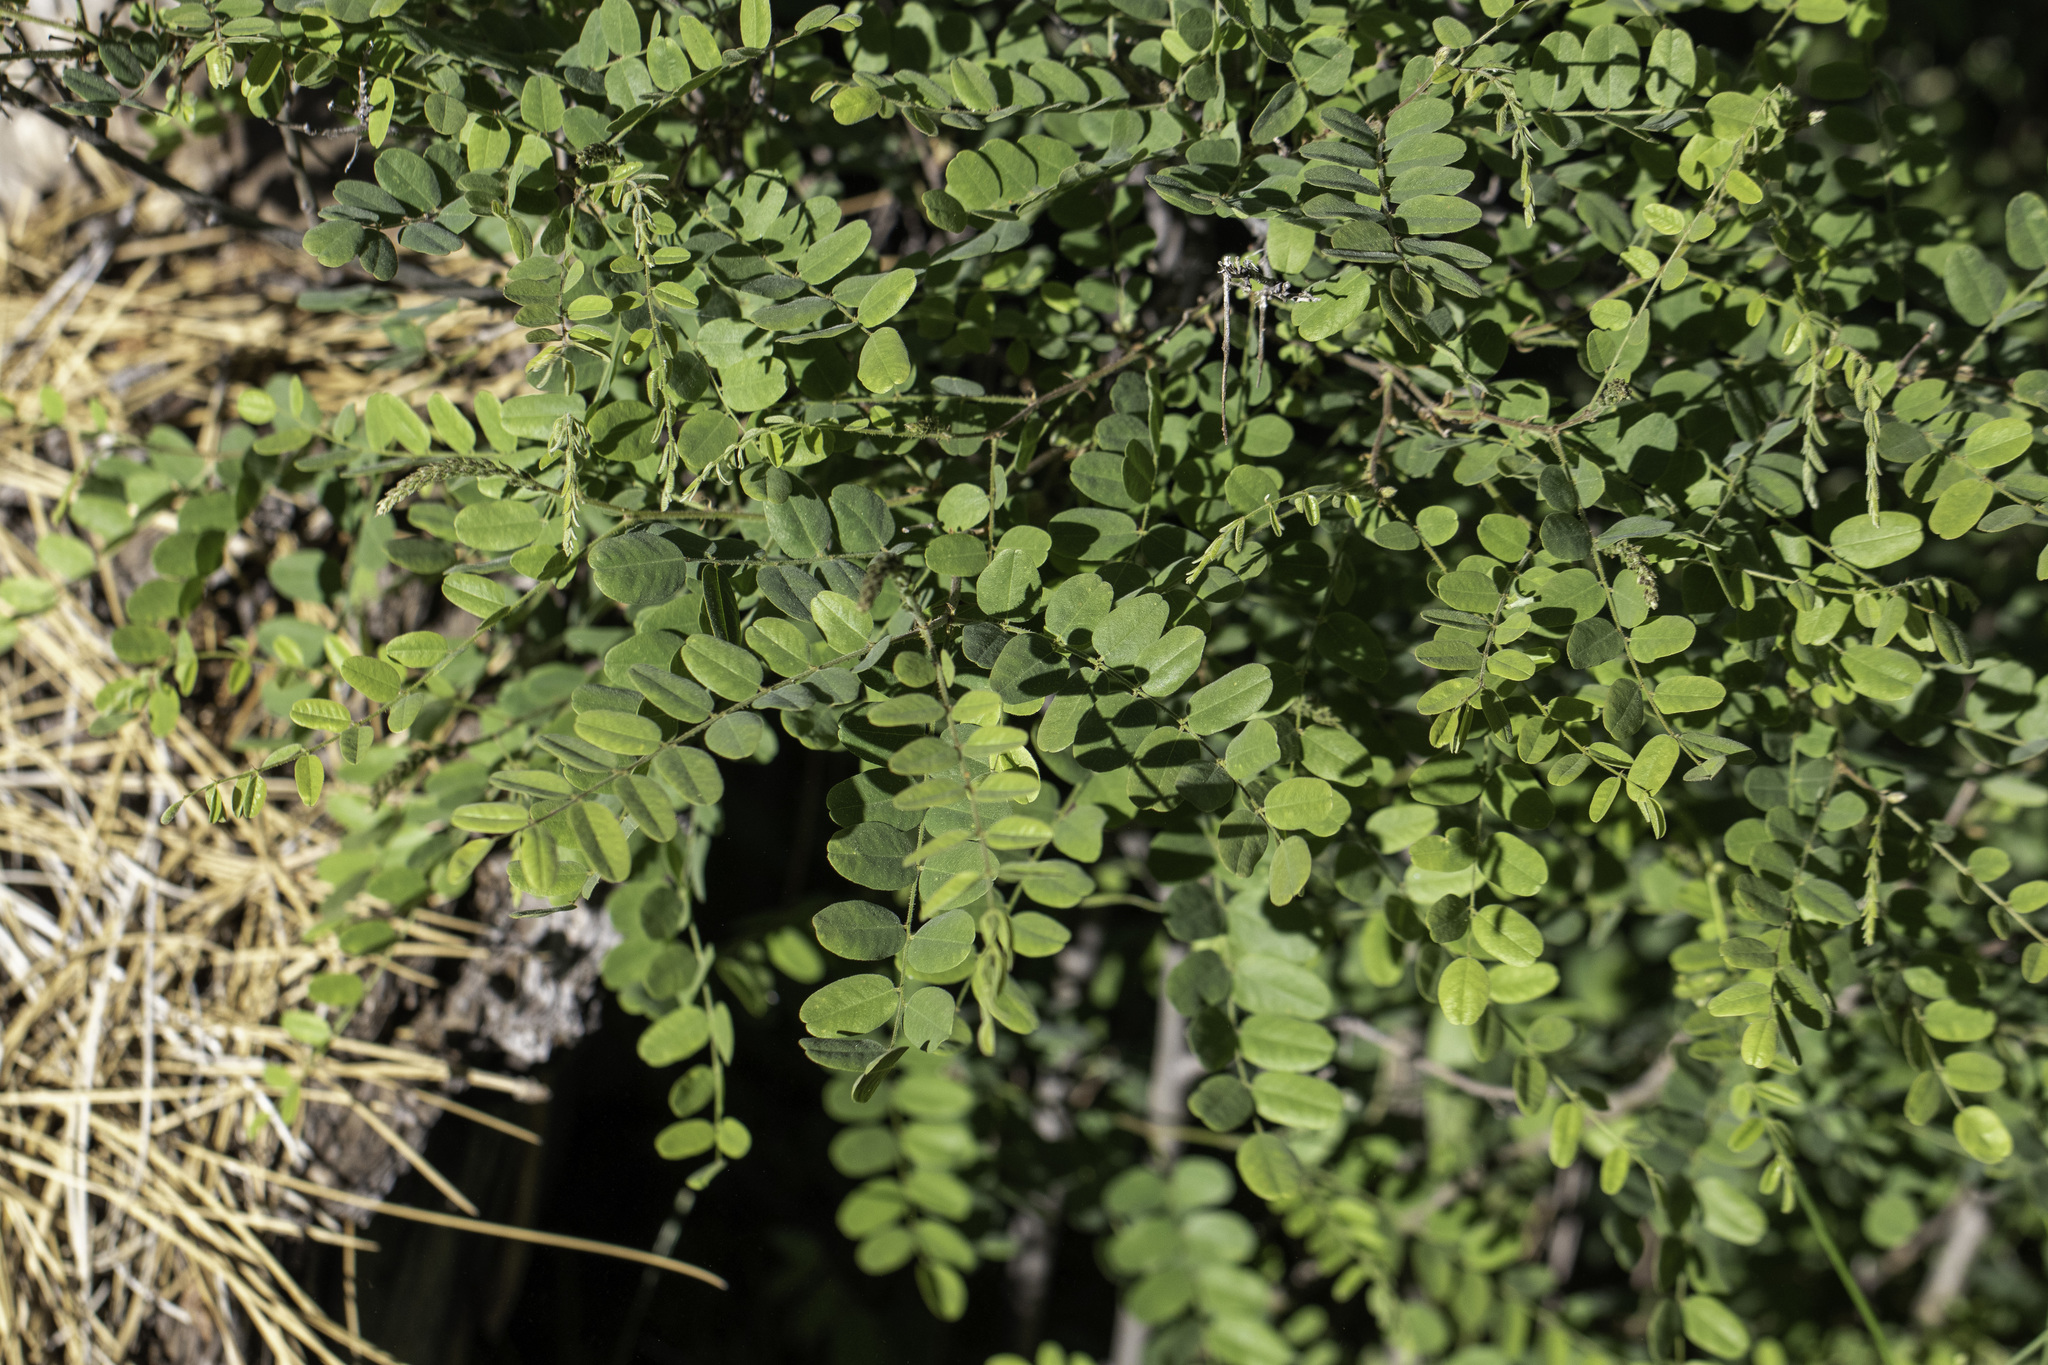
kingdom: Plantae
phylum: Tracheophyta
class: Magnoliopsida
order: Fabales
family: Fabaceae
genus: Amorpha
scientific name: Amorpha californica
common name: California indigobush
